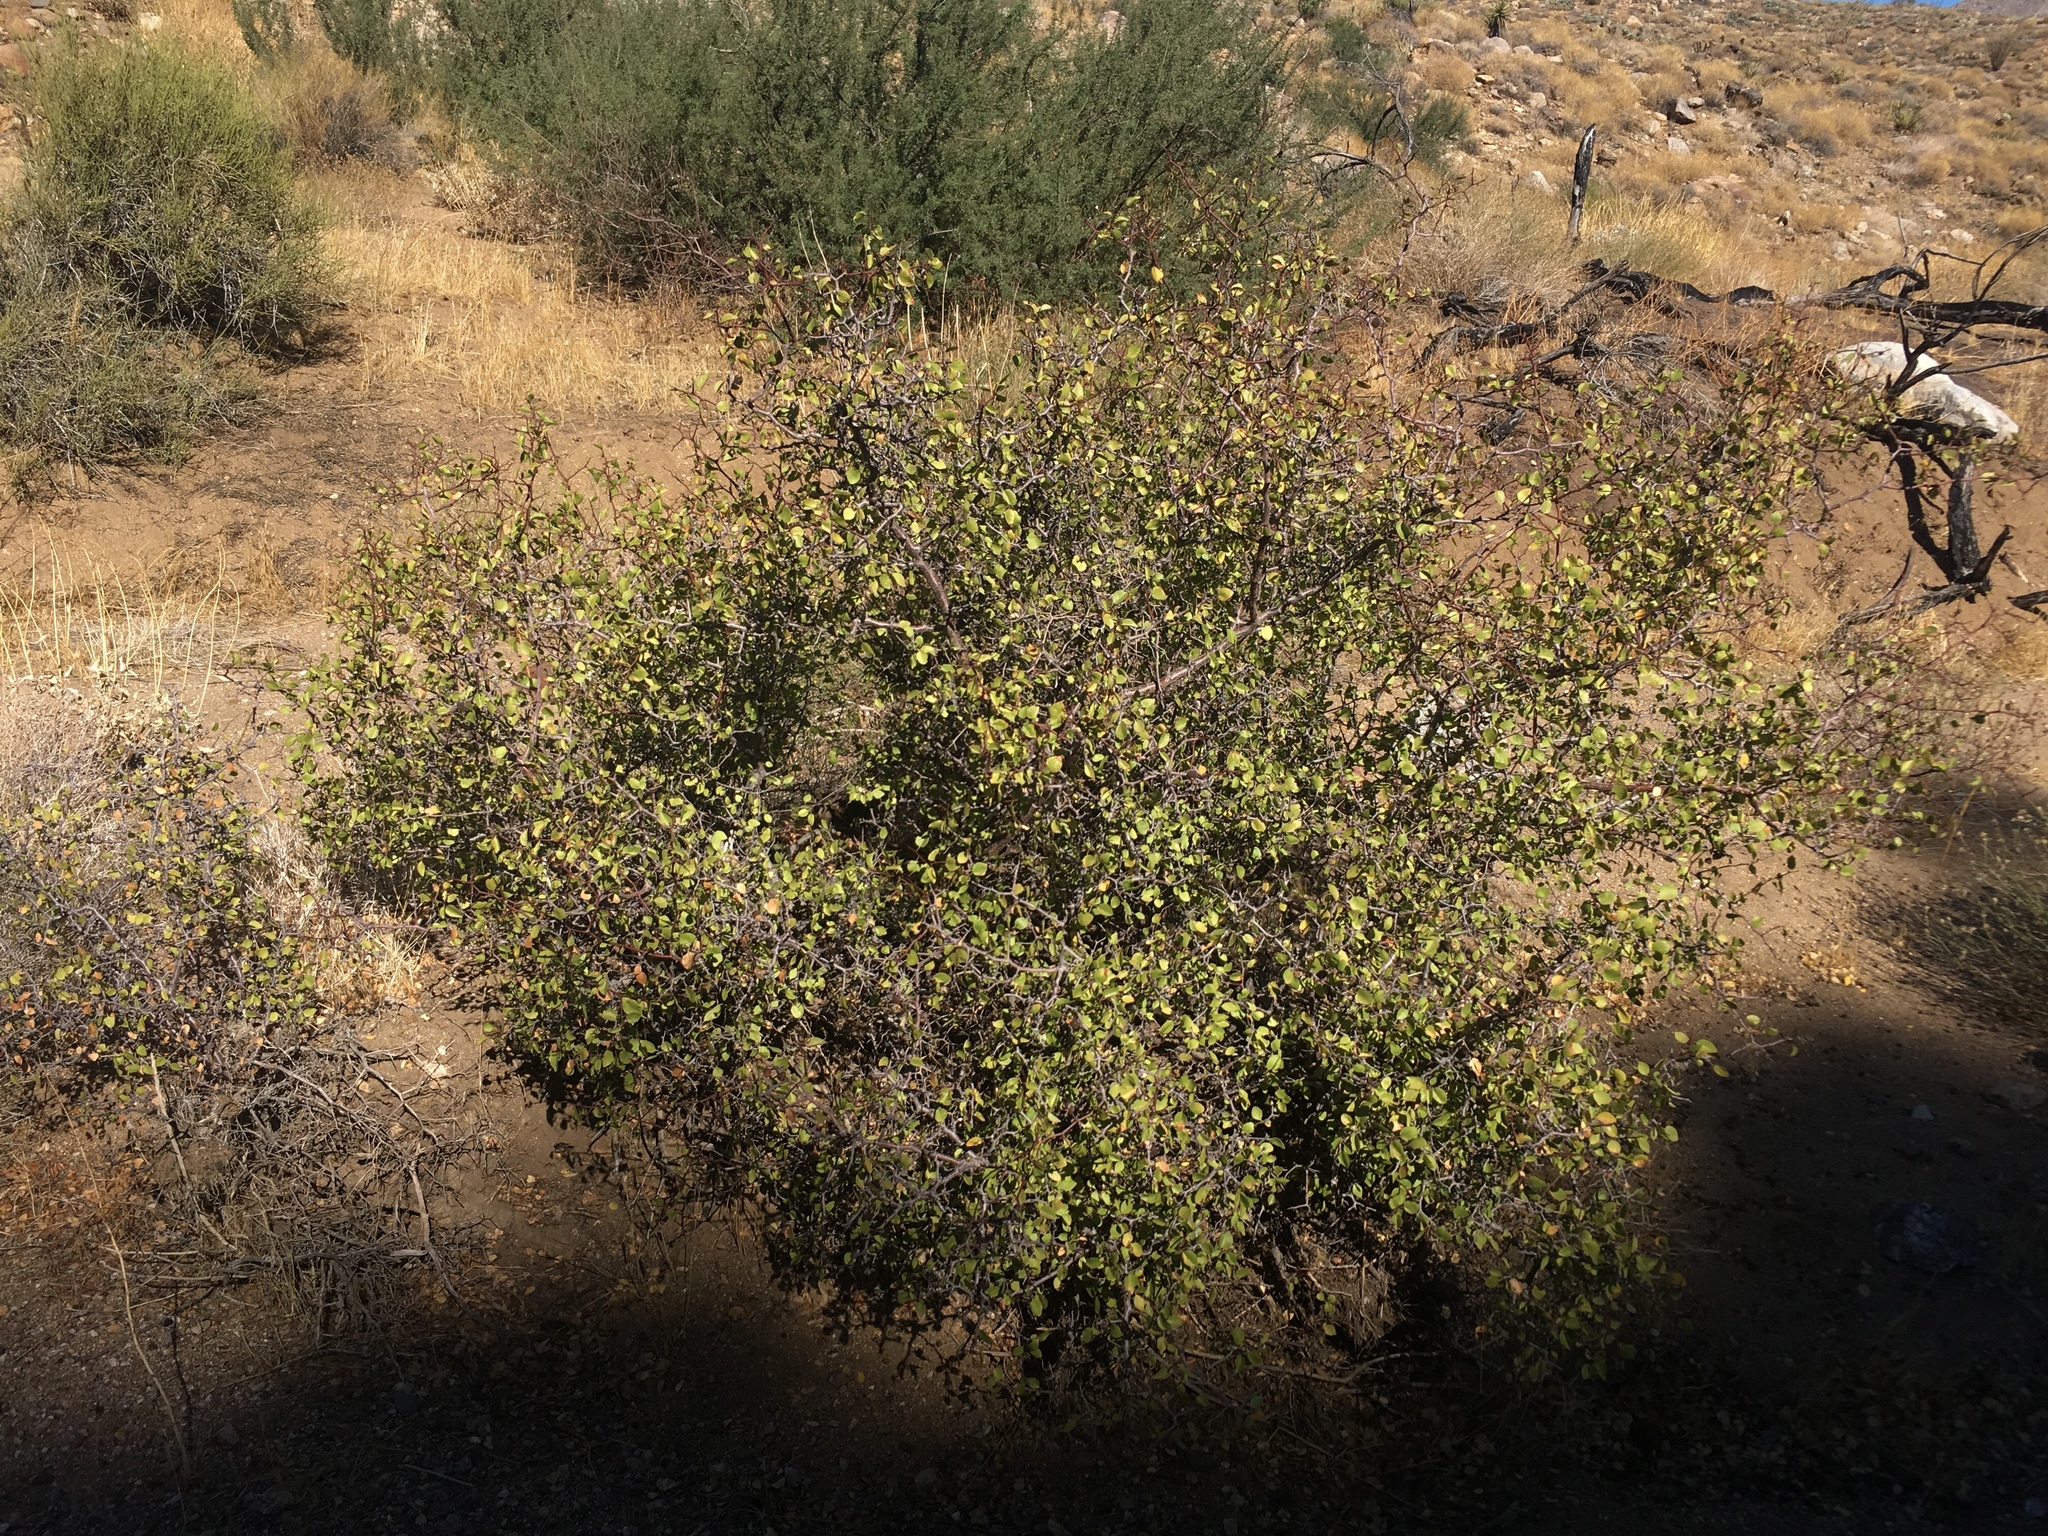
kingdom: Plantae
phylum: Tracheophyta
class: Magnoliopsida
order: Rosales
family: Rosaceae
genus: Prunus
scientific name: Prunus fremontii
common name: Desert apricot
